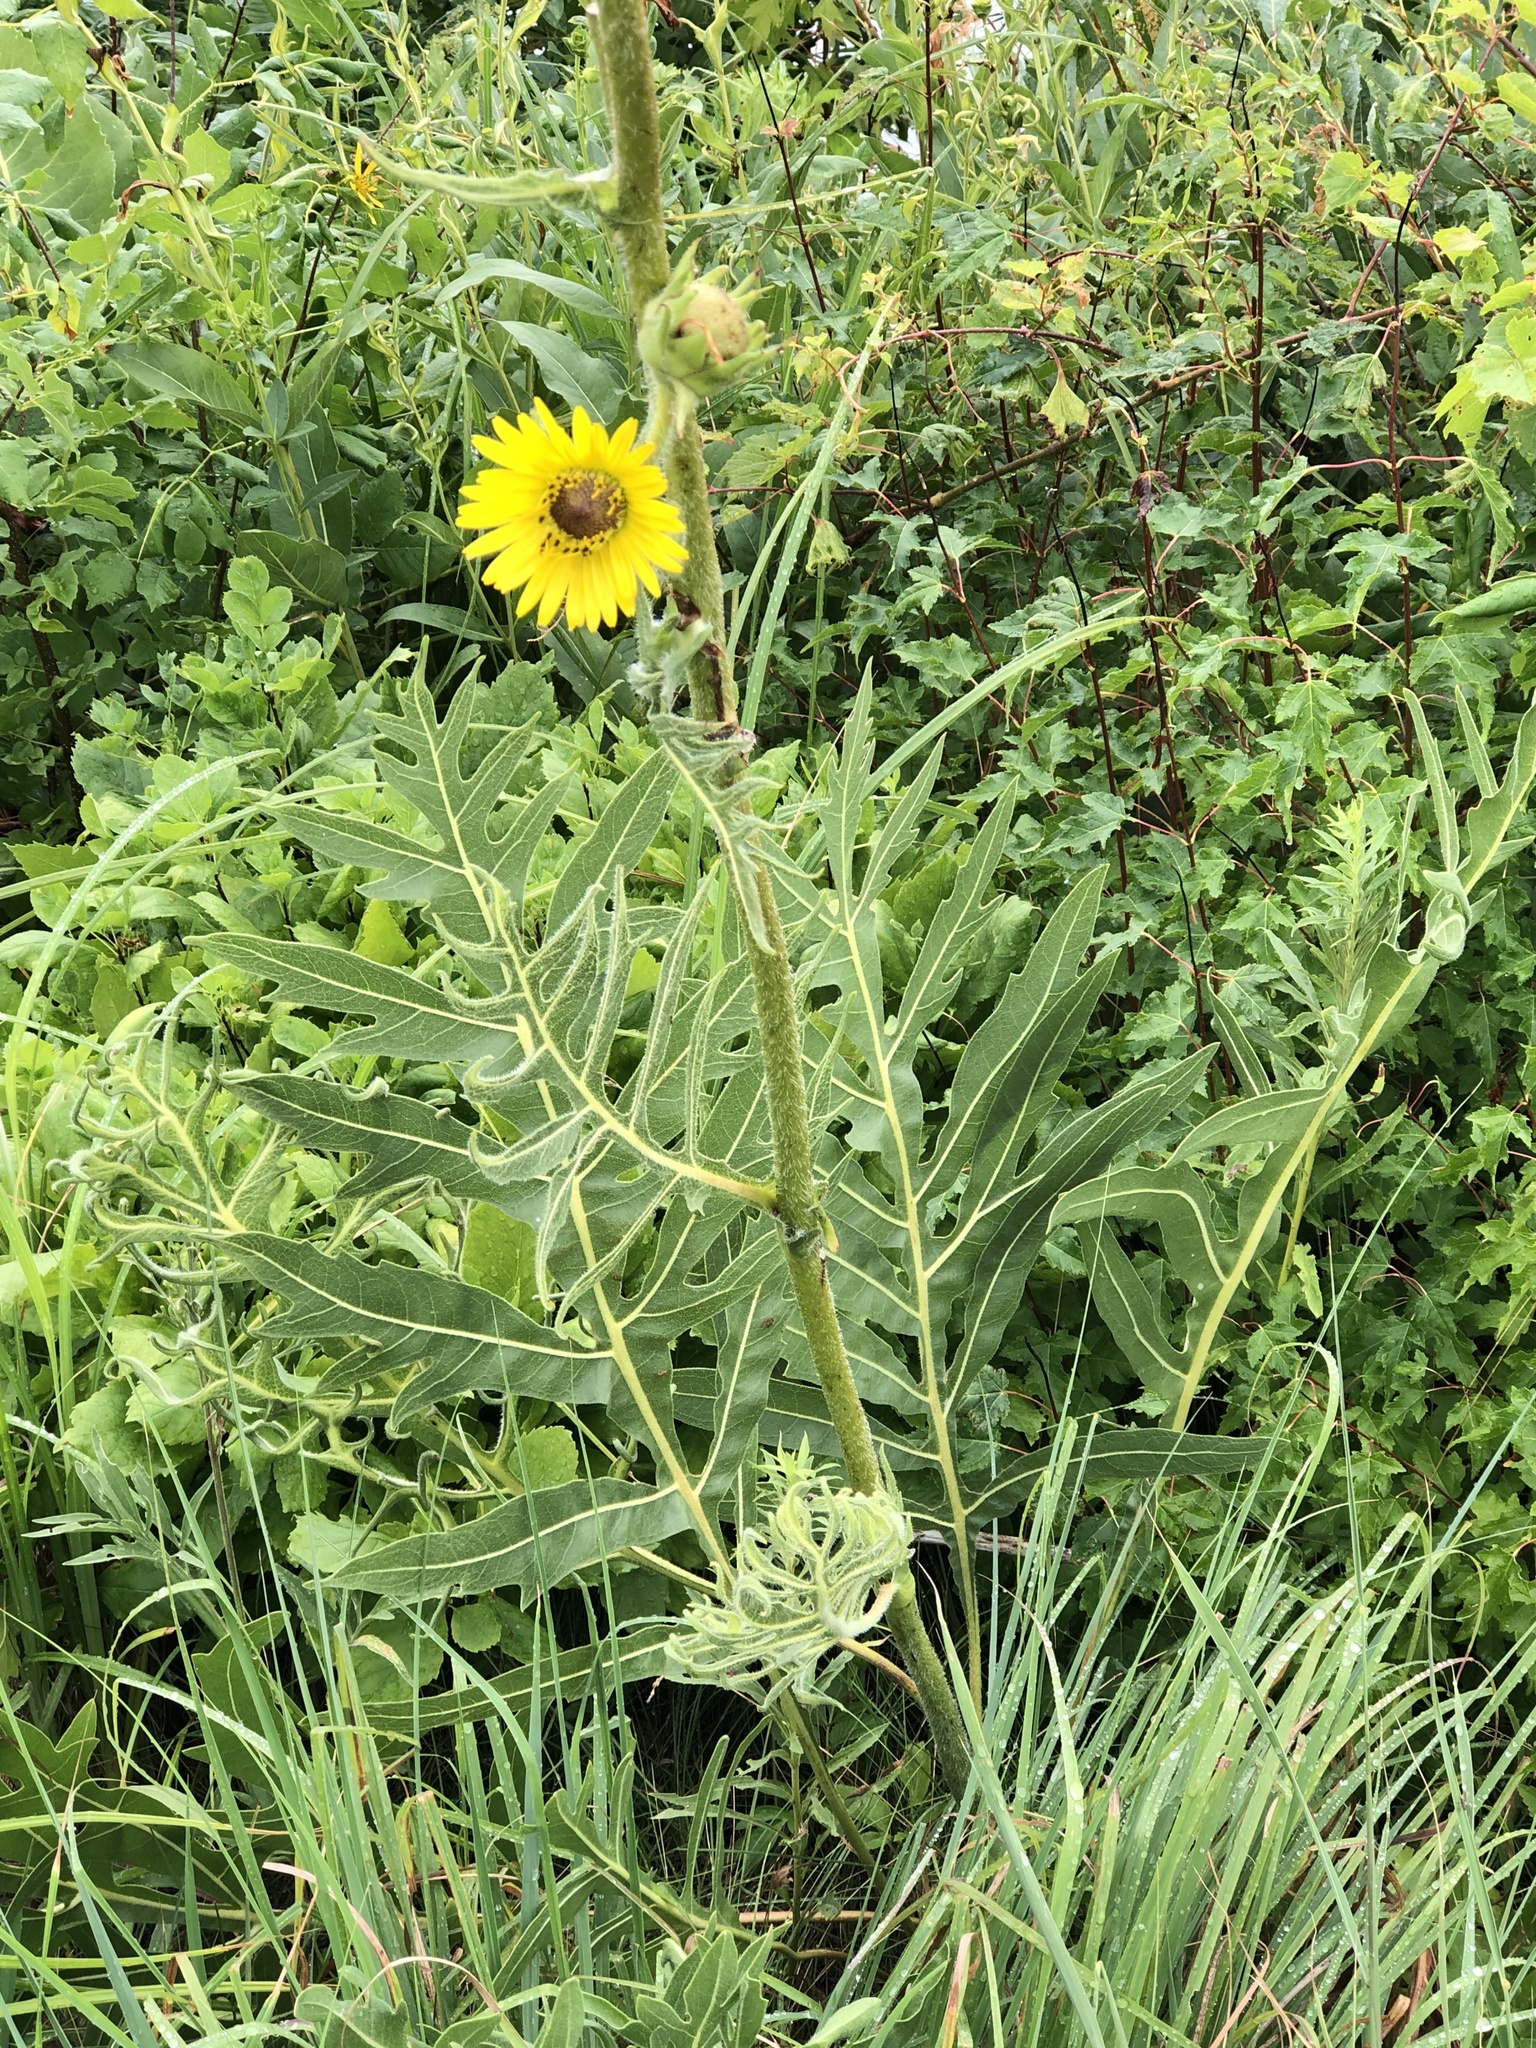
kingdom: Plantae
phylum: Tracheophyta
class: Magnoliopsida
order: Asterales
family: Asteraceae
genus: Silphium
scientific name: Silphium laciniatum
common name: Polarplant
